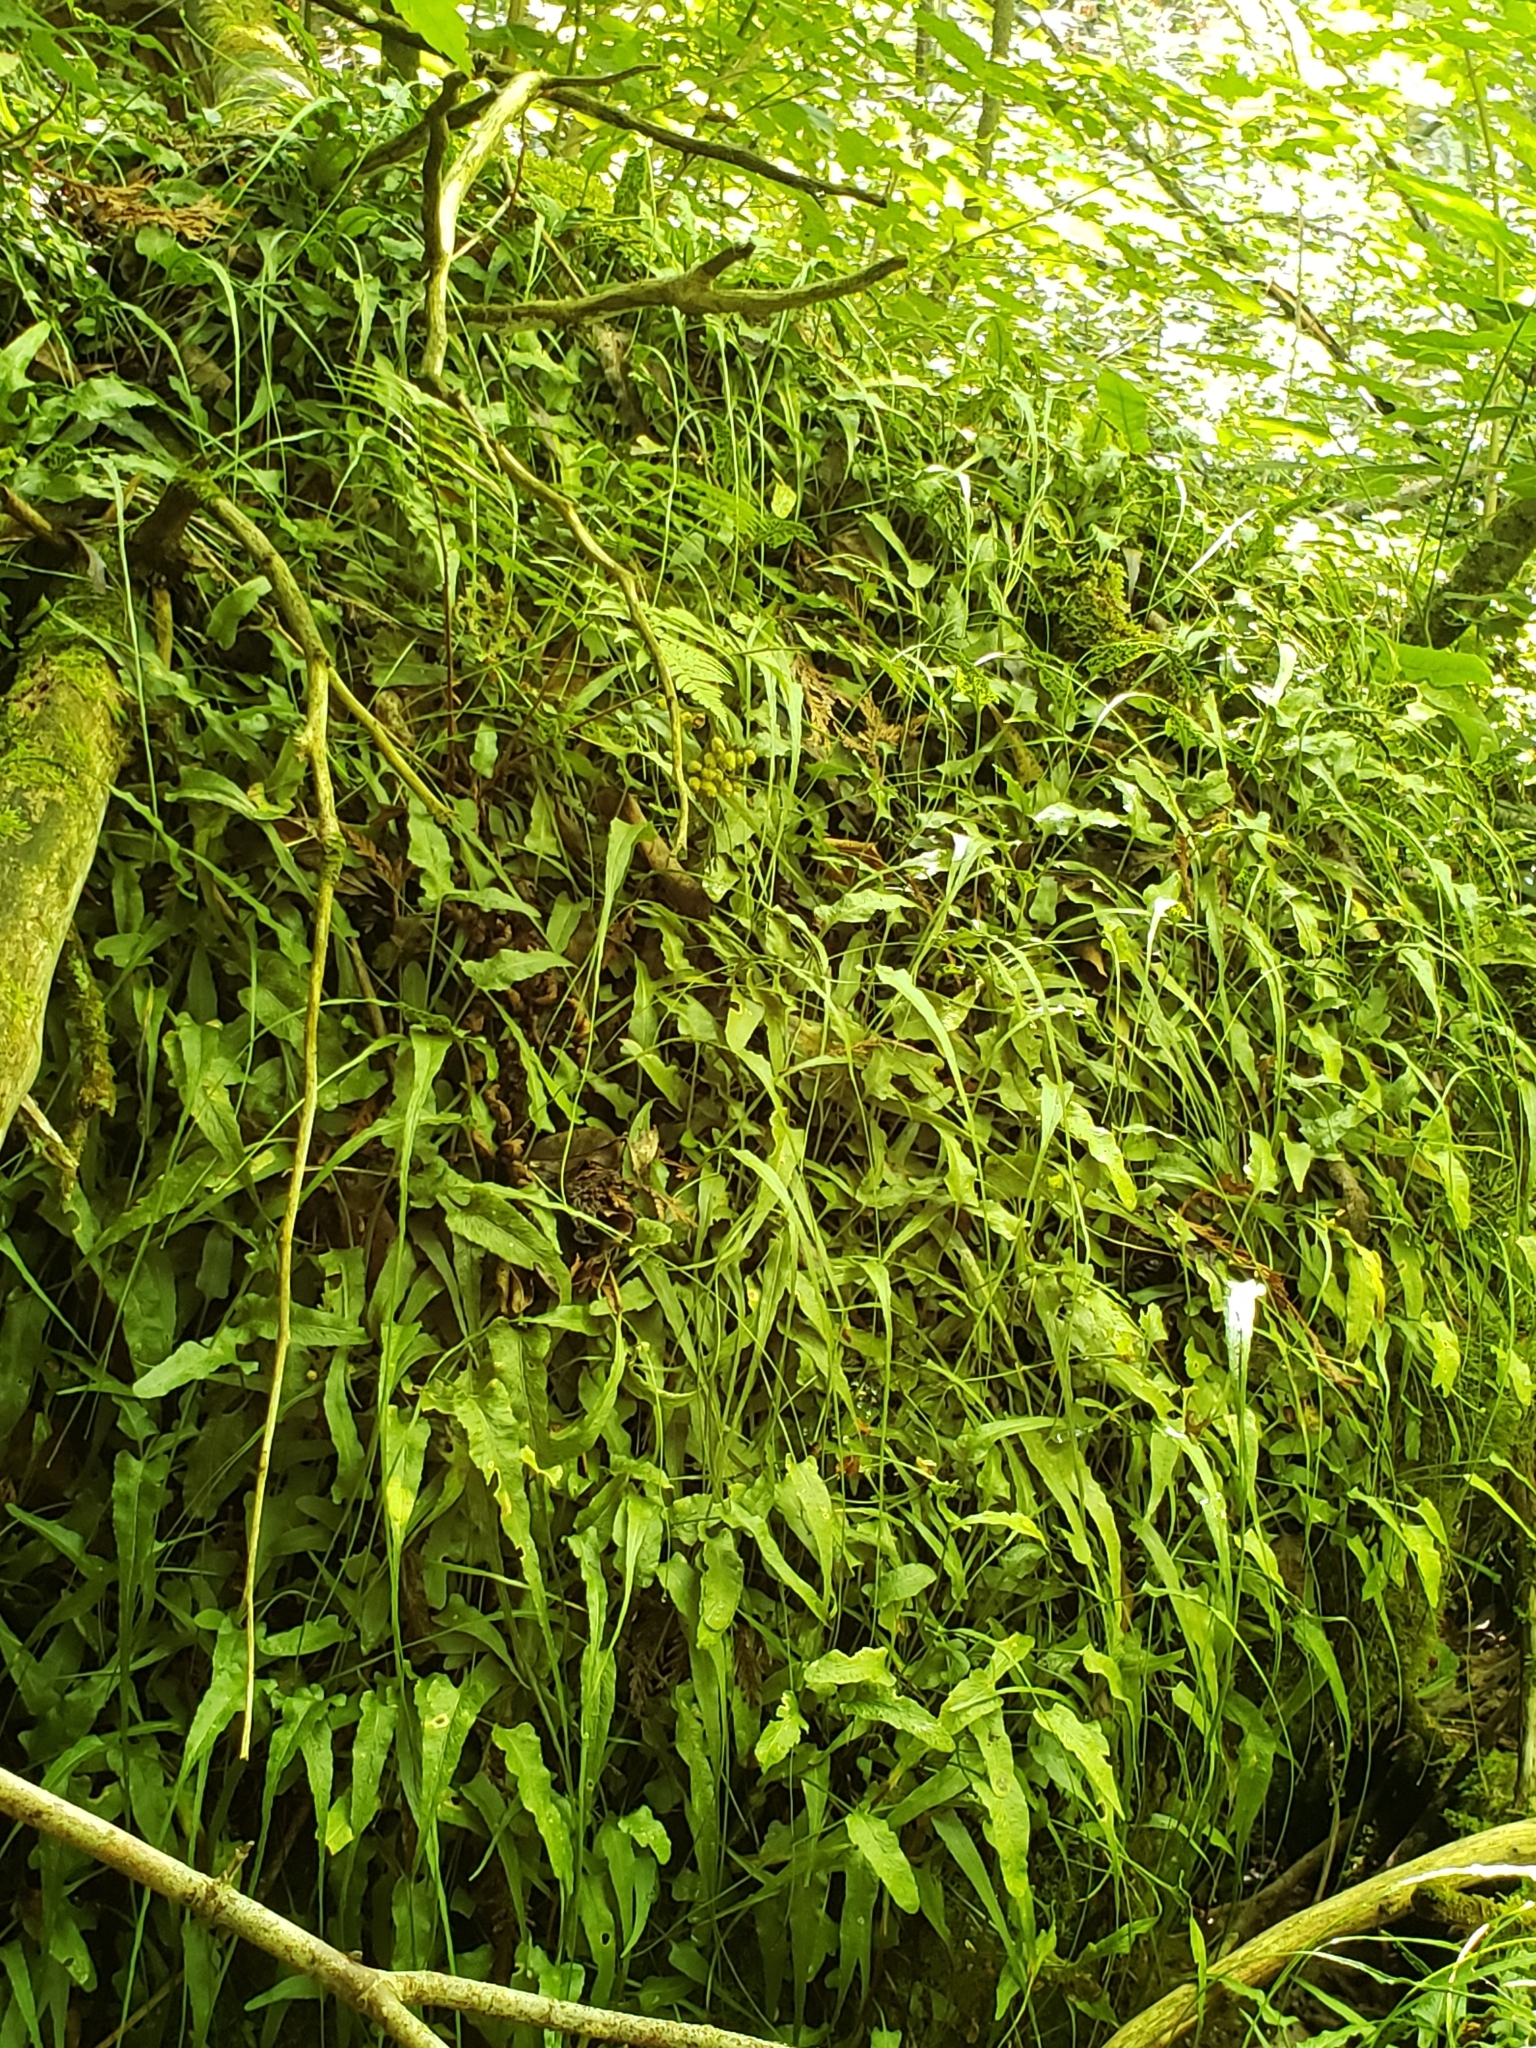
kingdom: Plantae
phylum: Tracheophyta
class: Polypodiopsida
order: Polypodiales
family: Aspleniaceae
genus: Asplenium
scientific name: Asplenium rhizophyllum
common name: Walking fern
